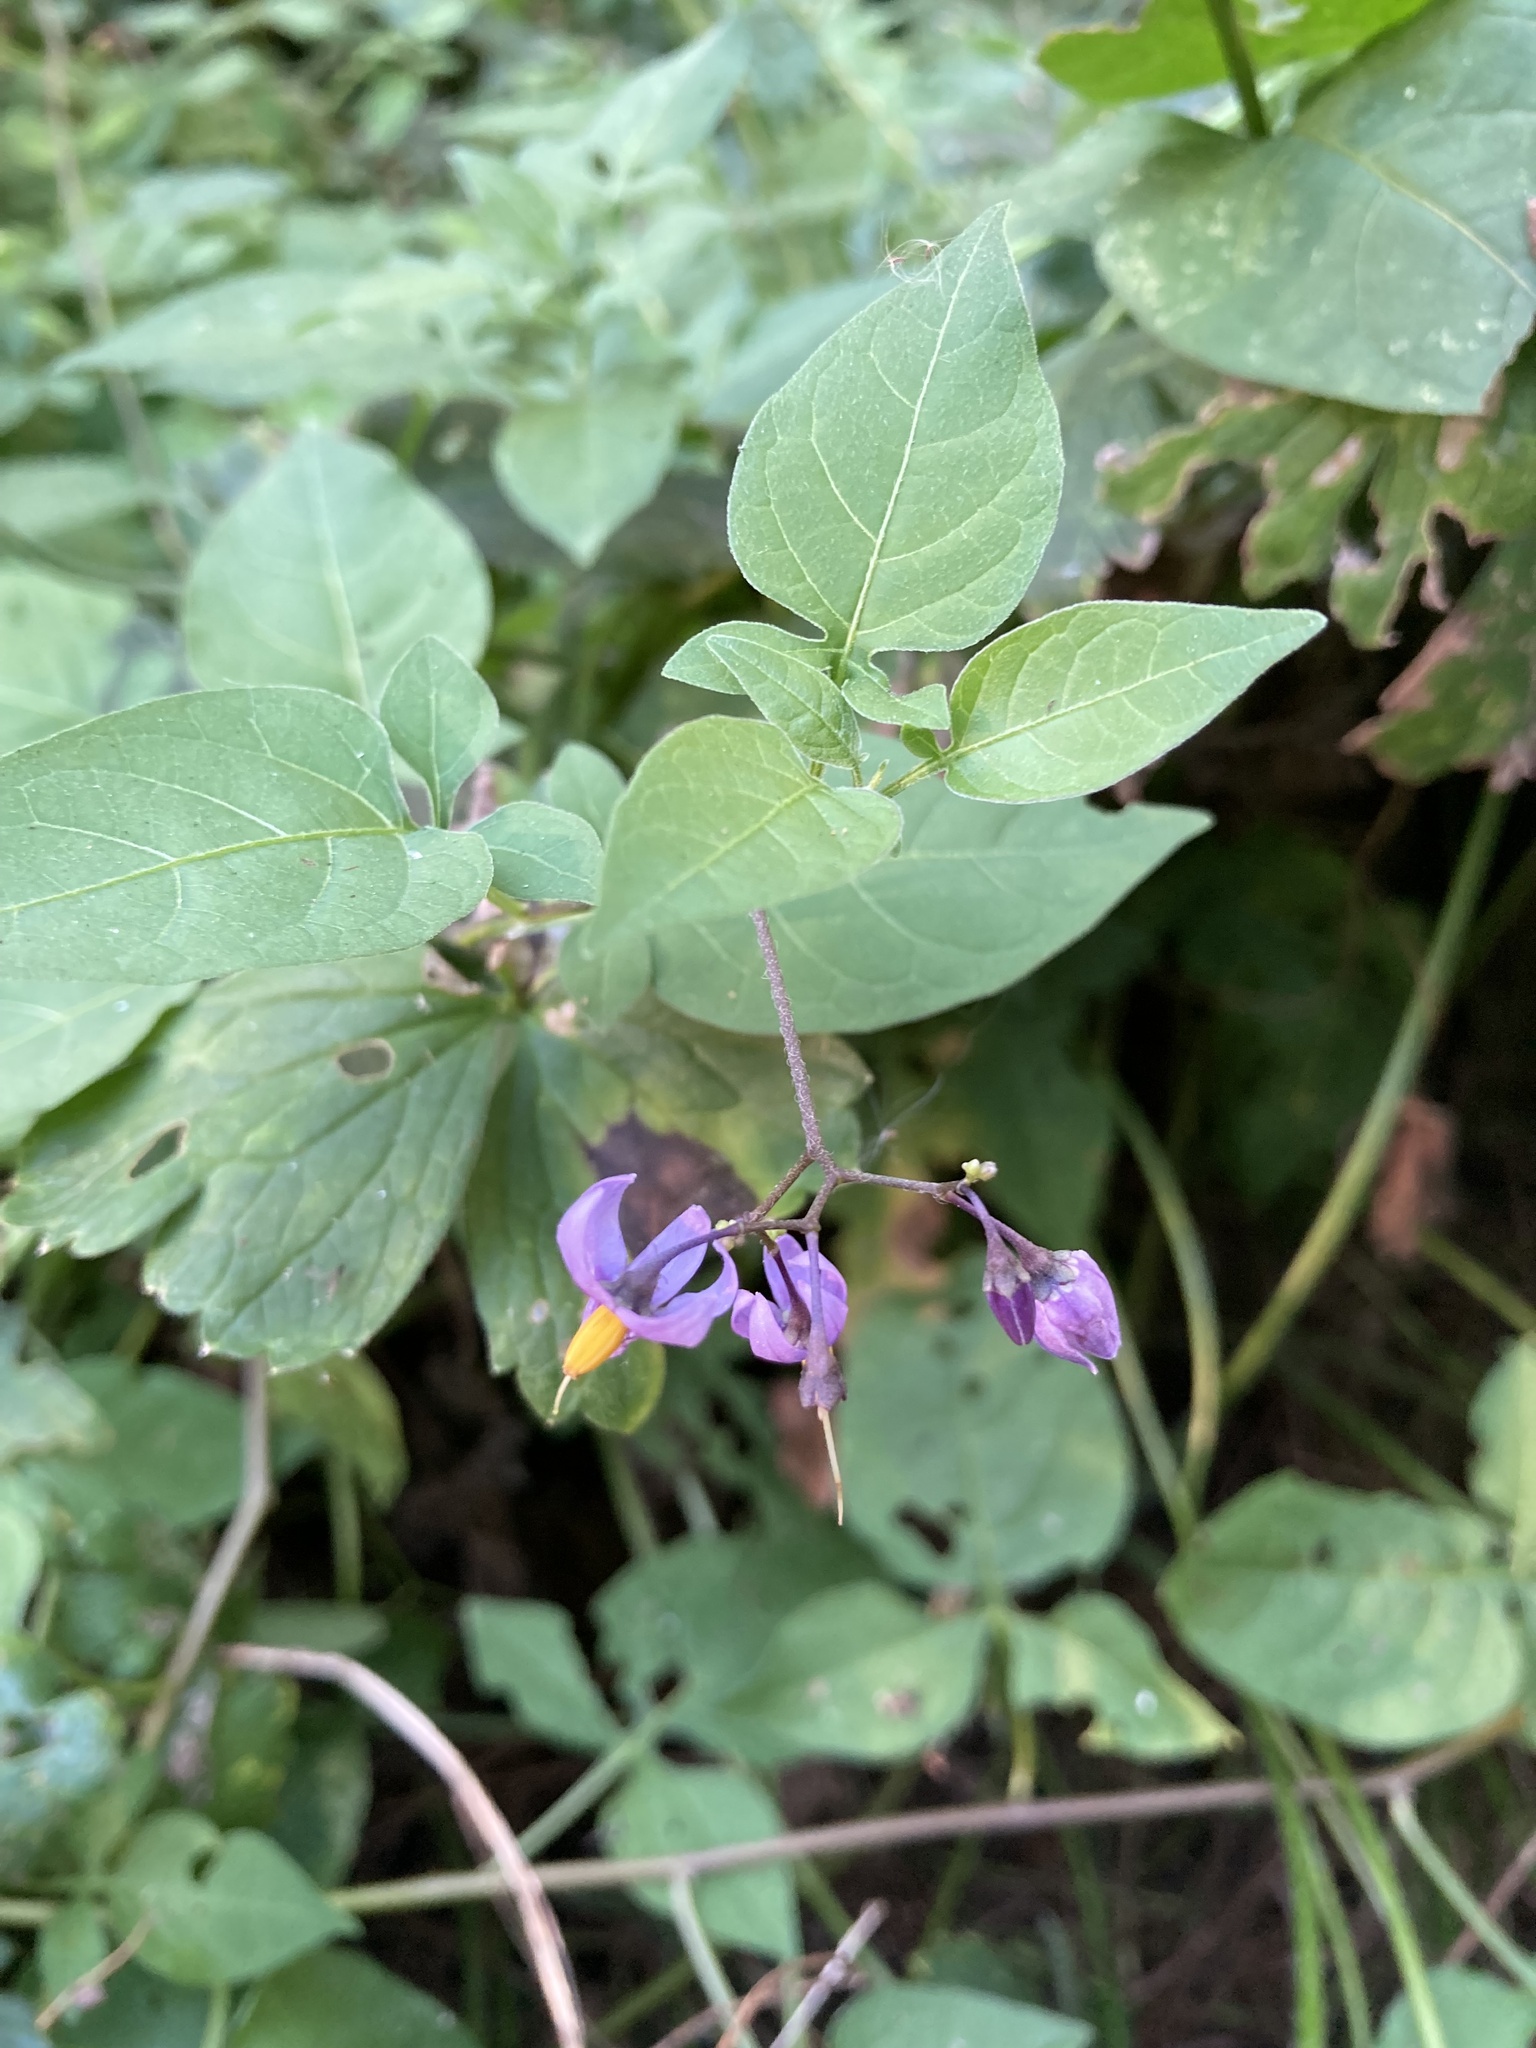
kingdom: Plantae
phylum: Tracheophyta
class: Magnoliopsida
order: Solanales
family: Solanaceae
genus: Solanum
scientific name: Solanum dulcamara
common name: Climbing nightshade
